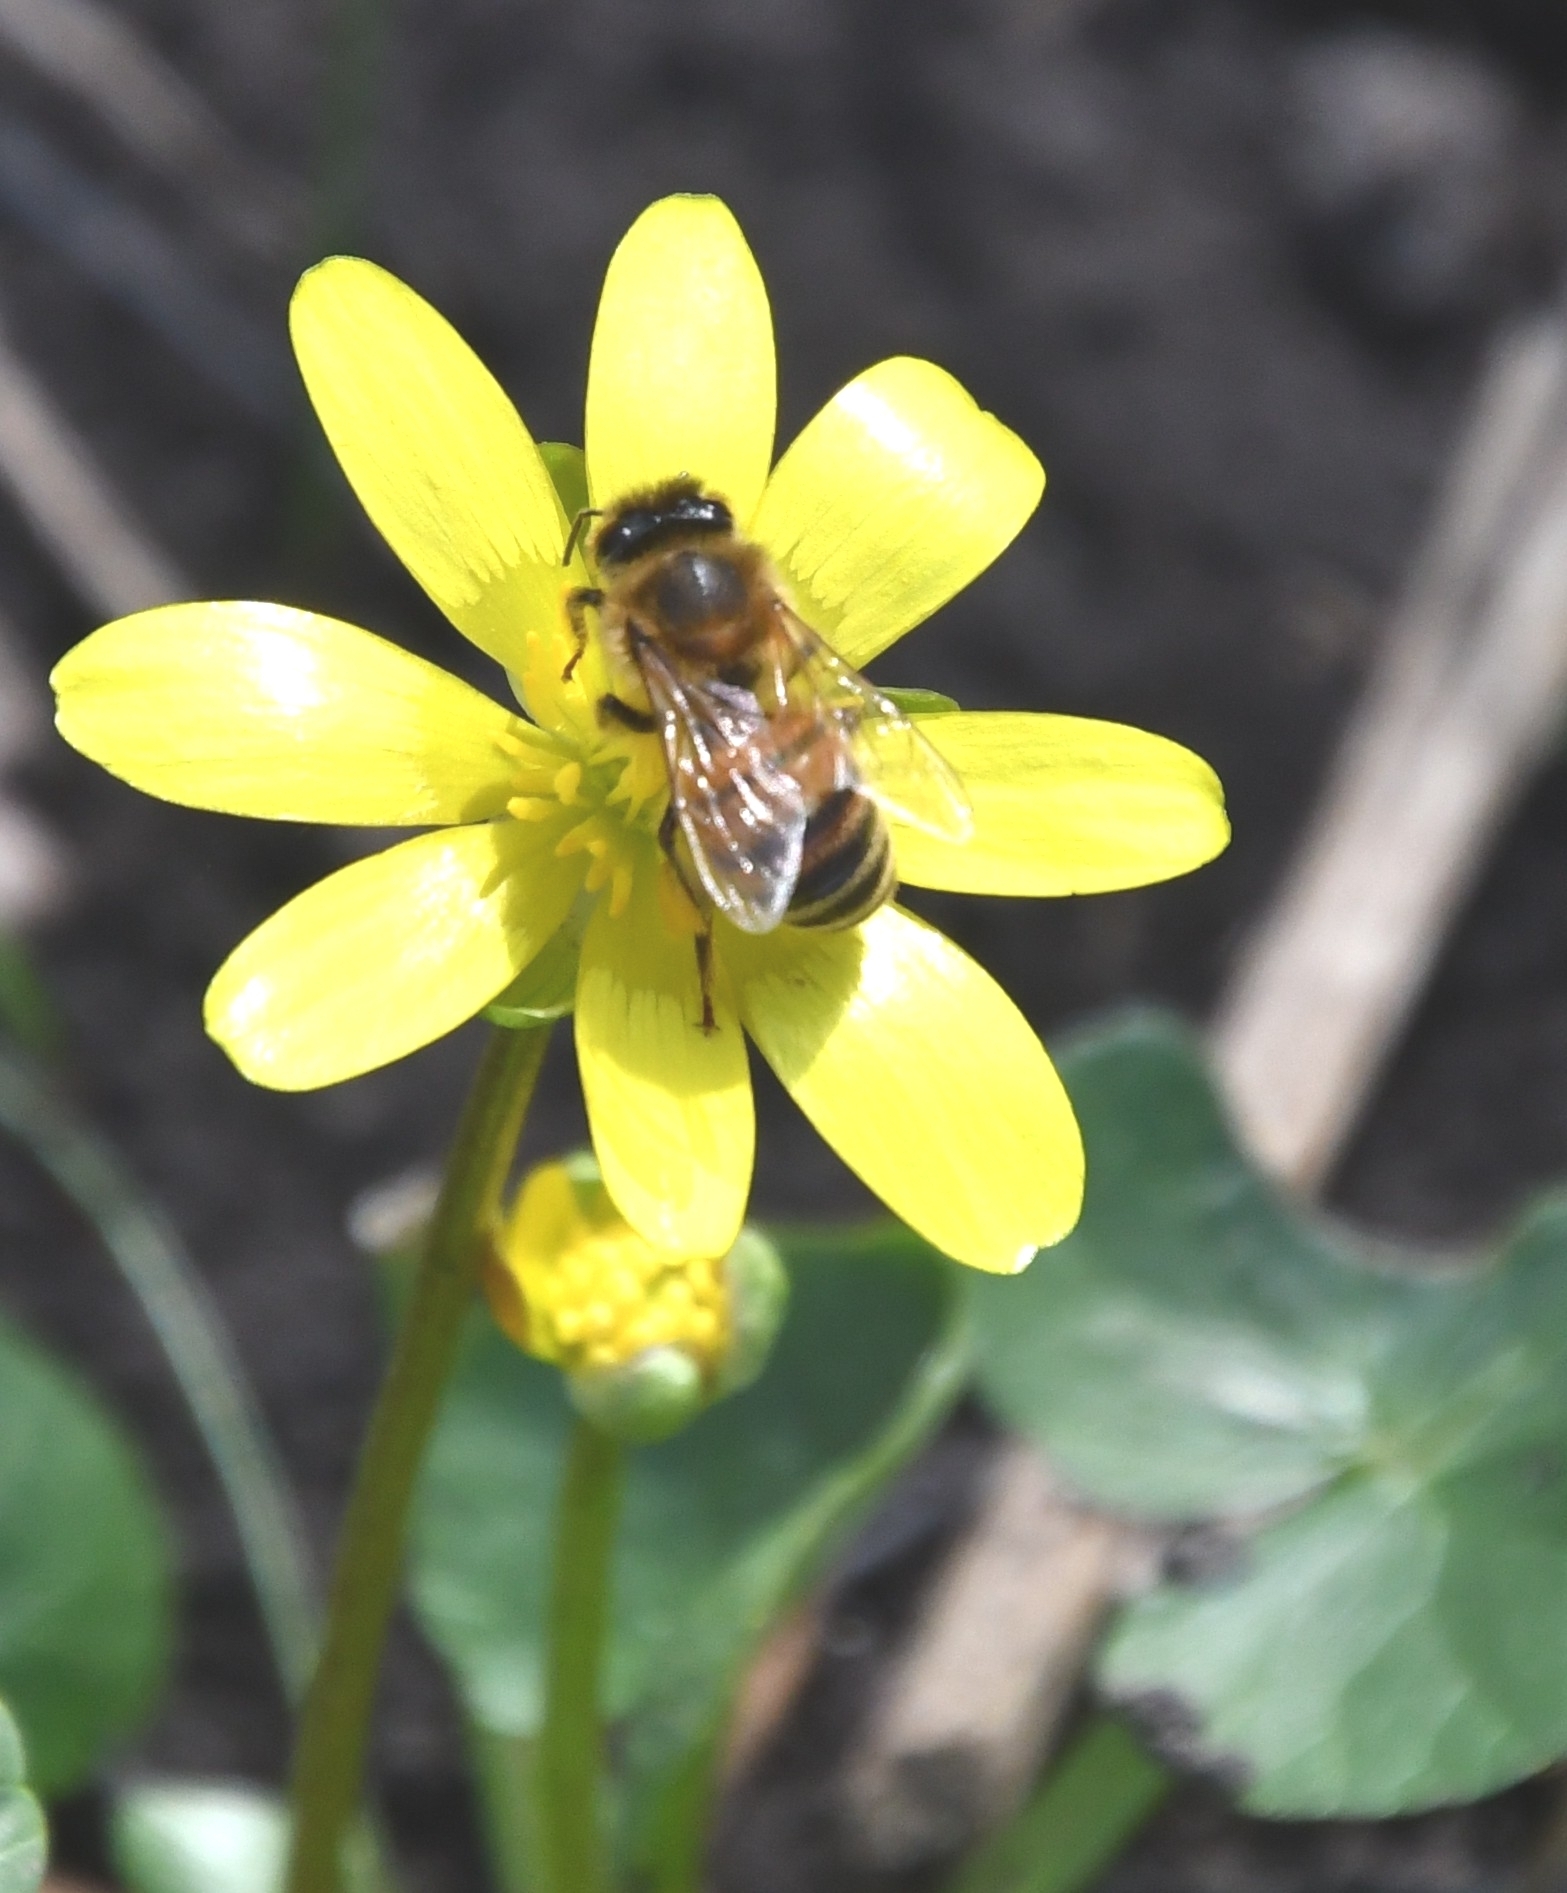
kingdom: Animalia
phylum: Arthropoda
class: Insecta
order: Hymenoptera
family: Apidae
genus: Apis
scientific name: Apis mellifera
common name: Honey bee
